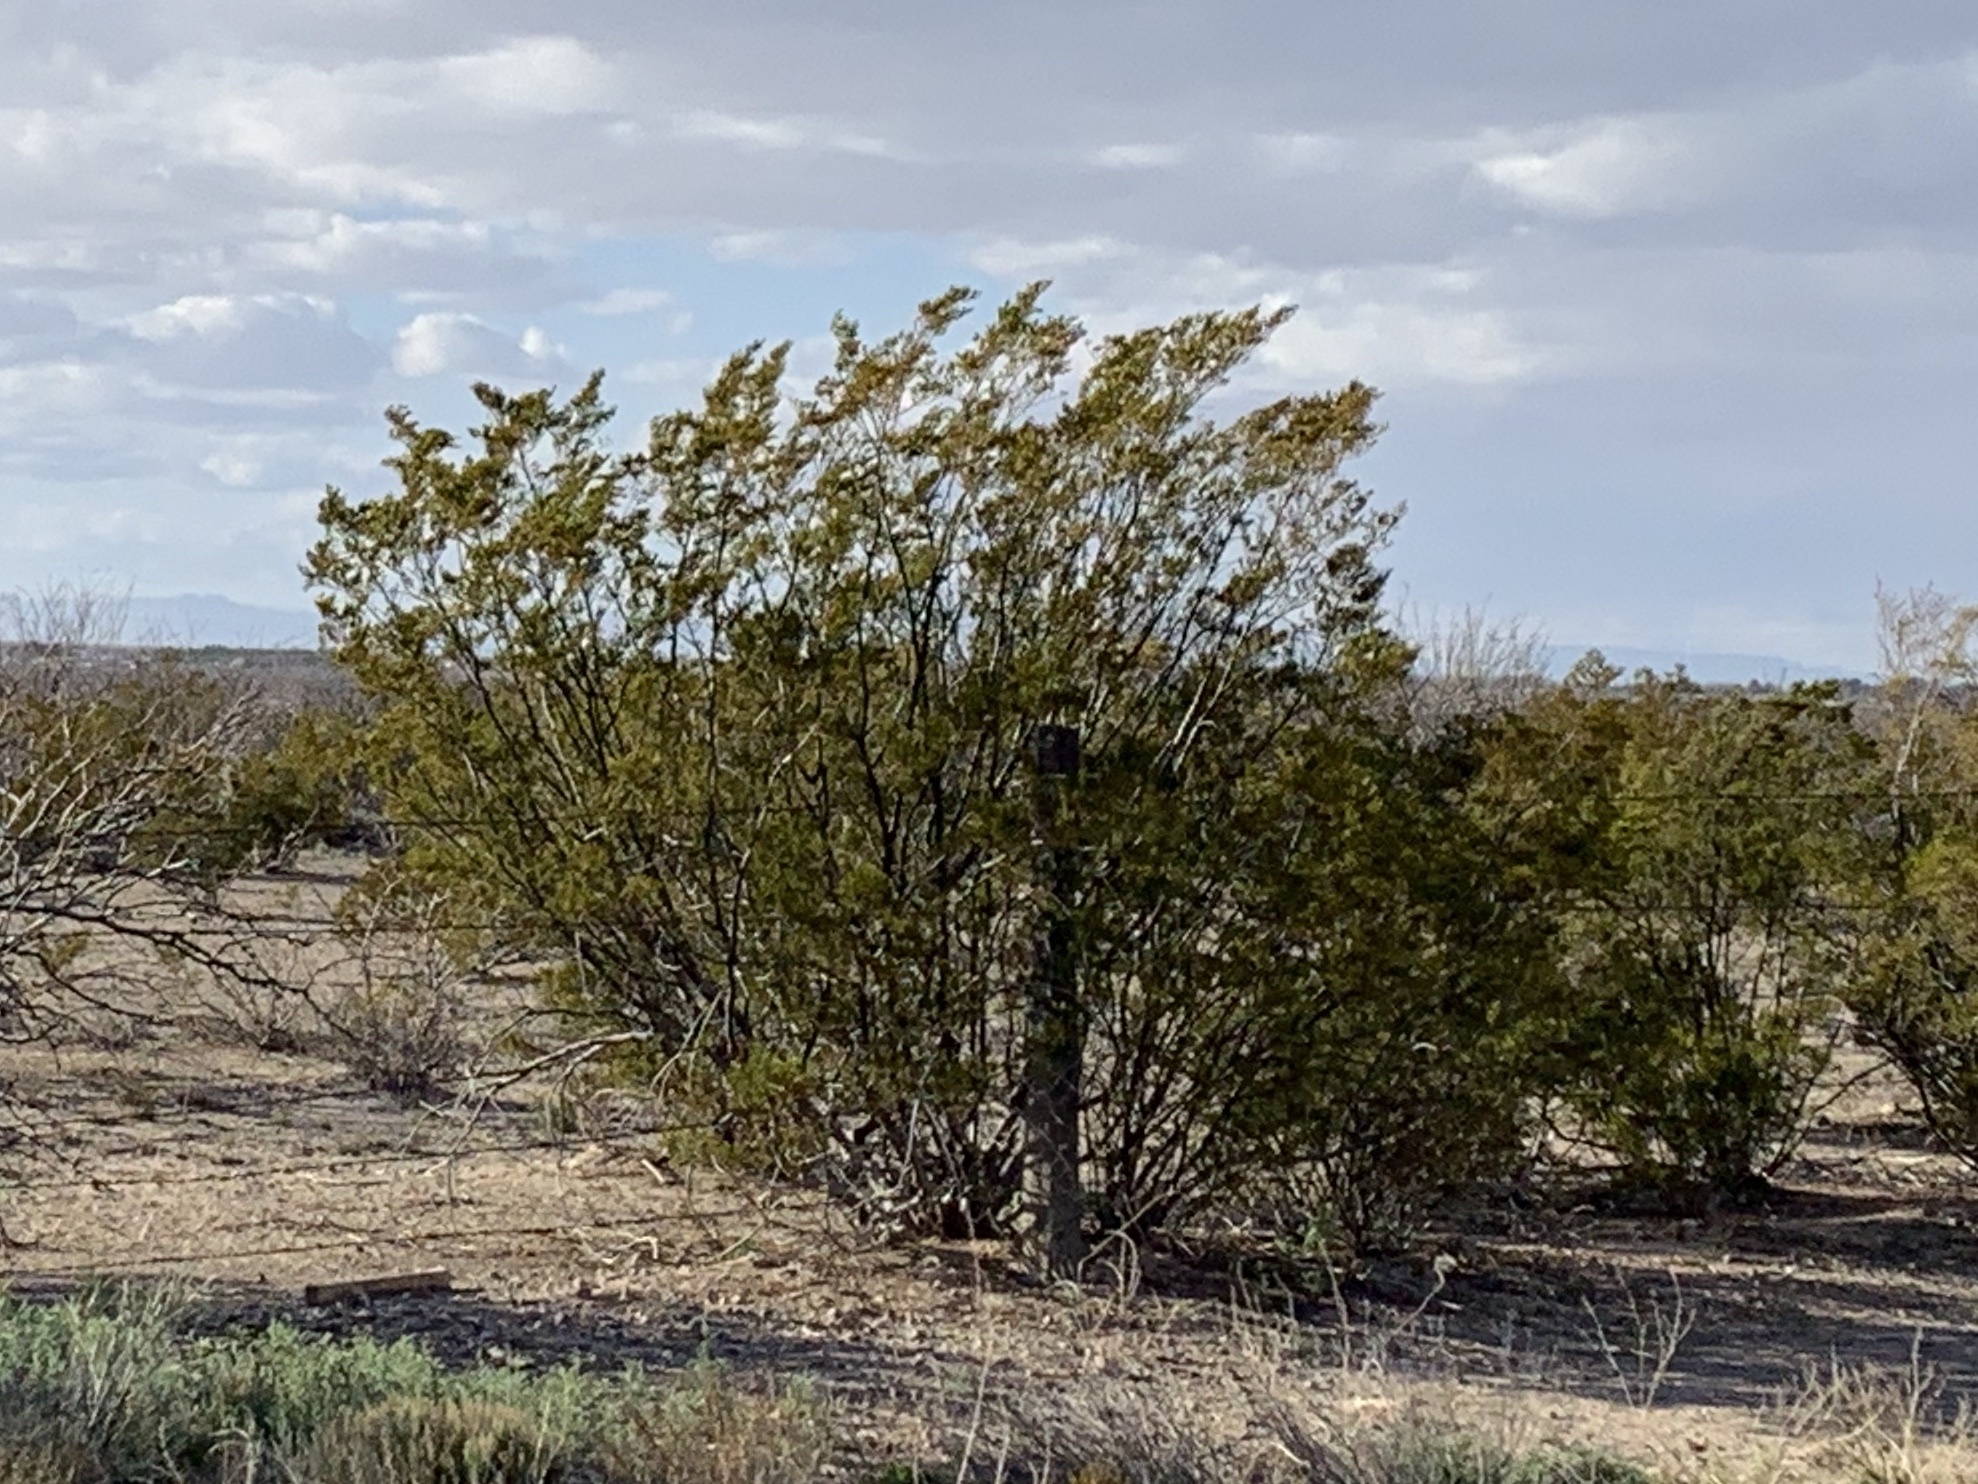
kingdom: Plantae
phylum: Tracheophyta
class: Magnoliopsida
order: Zygophyllales
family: Zygophyllaceae
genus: Larrea
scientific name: Larrea tridentata
